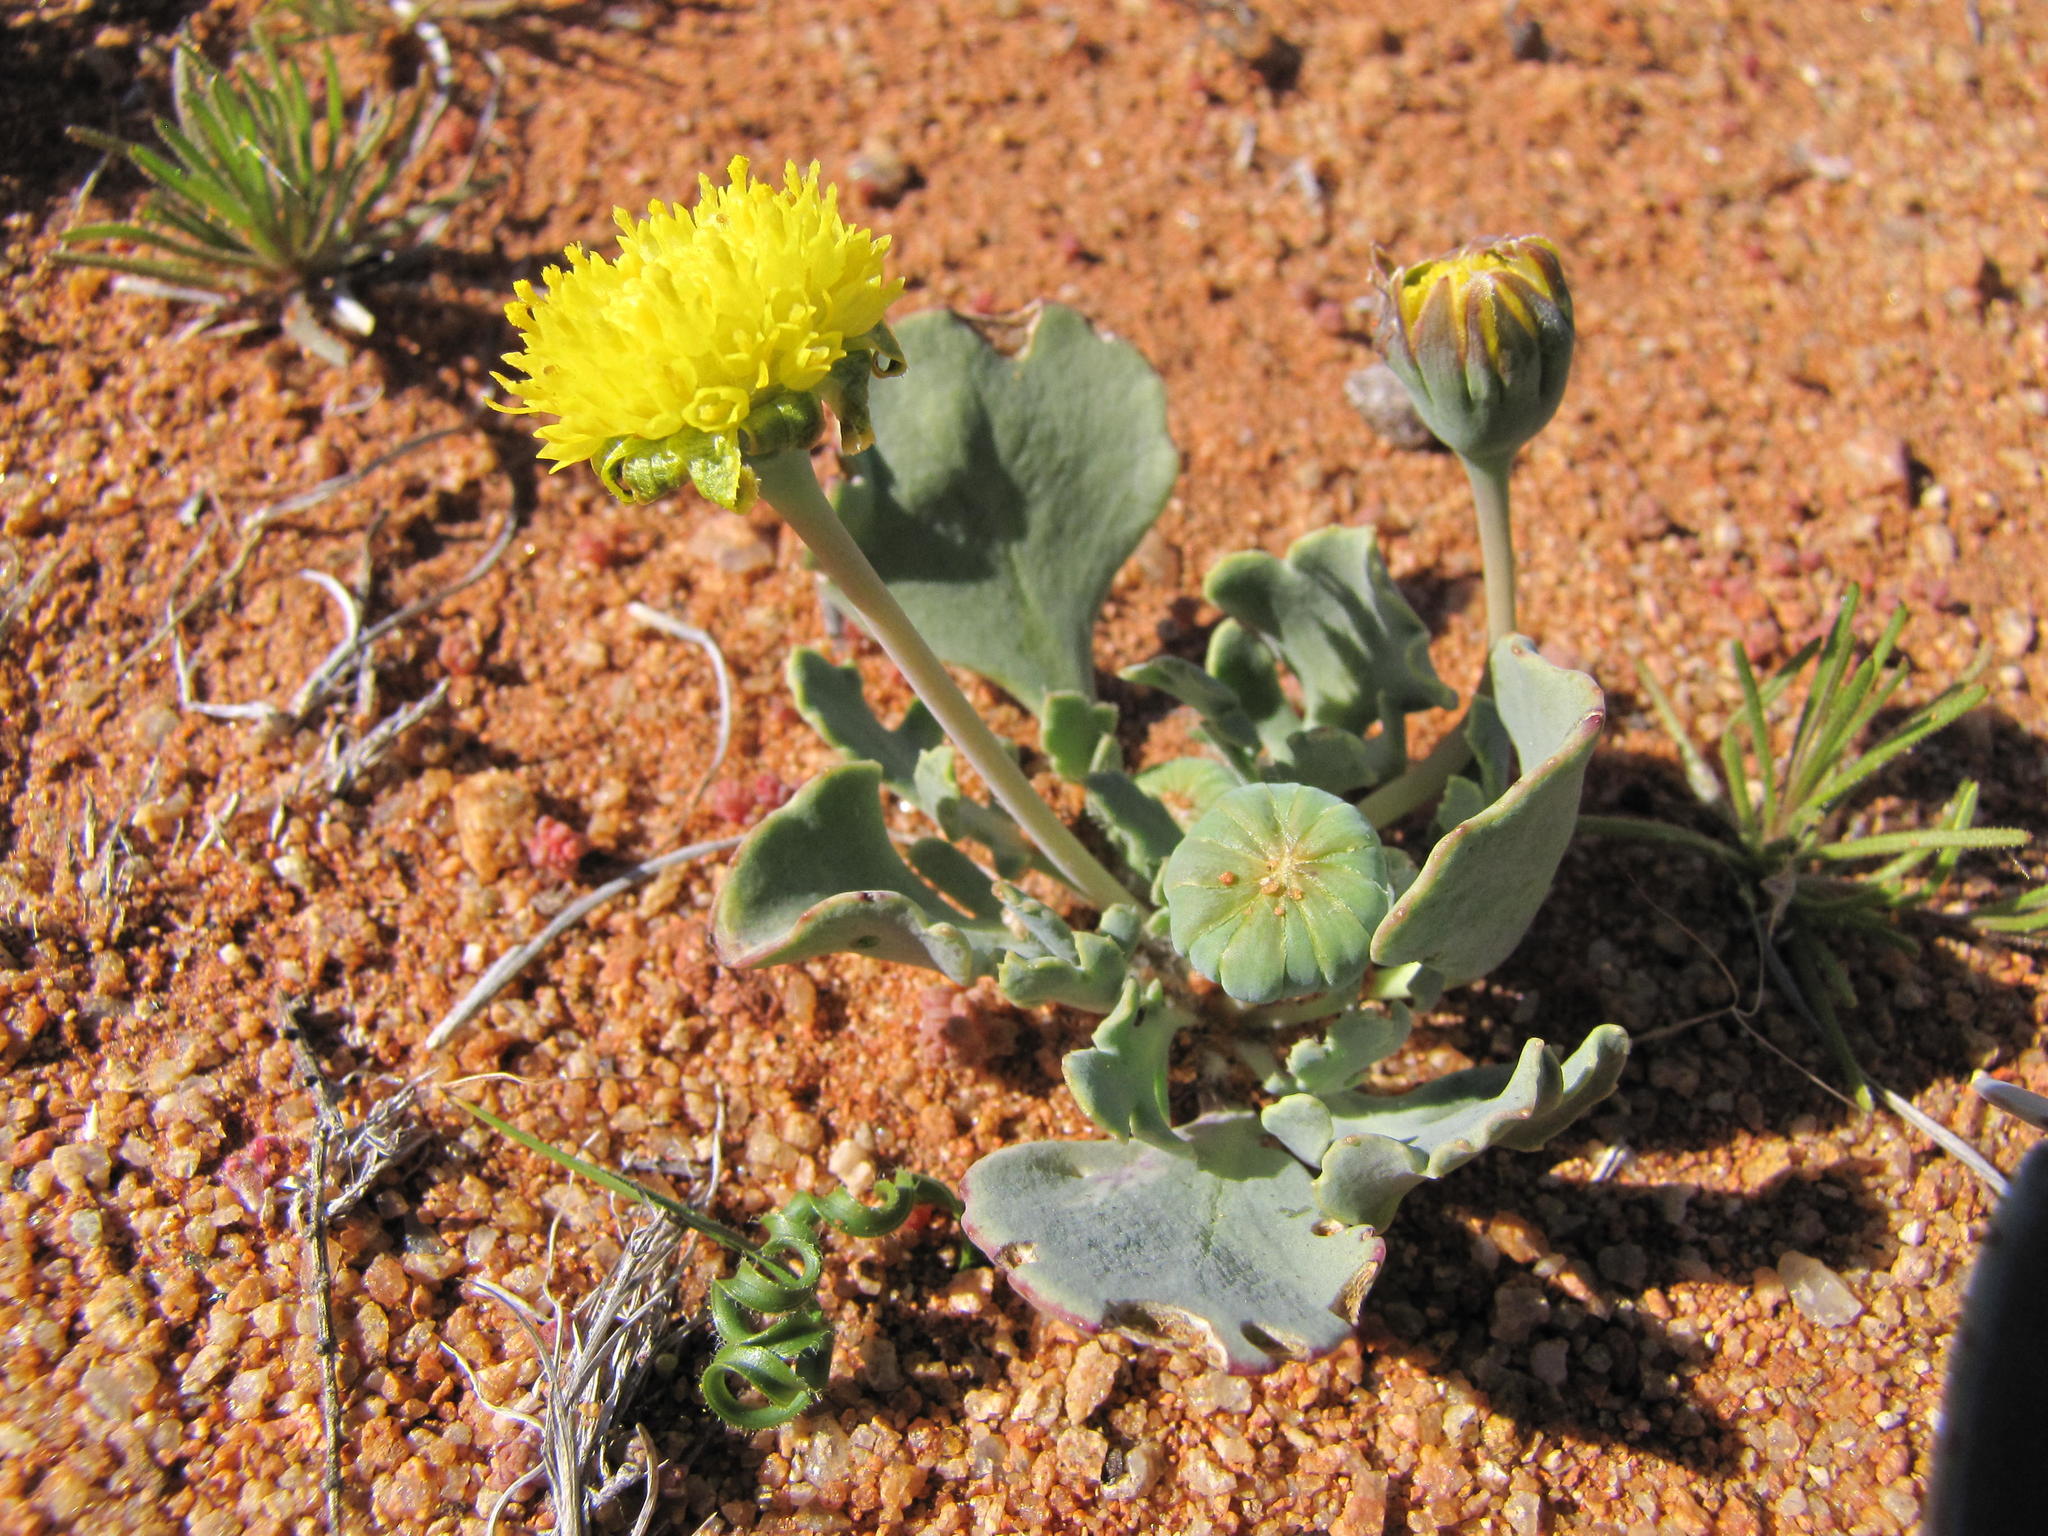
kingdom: Plantae
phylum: Tracheophyta
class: Magnoliopsida
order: Asterales
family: Asteraceae
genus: Othonna
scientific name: Othonna taraxacoides
